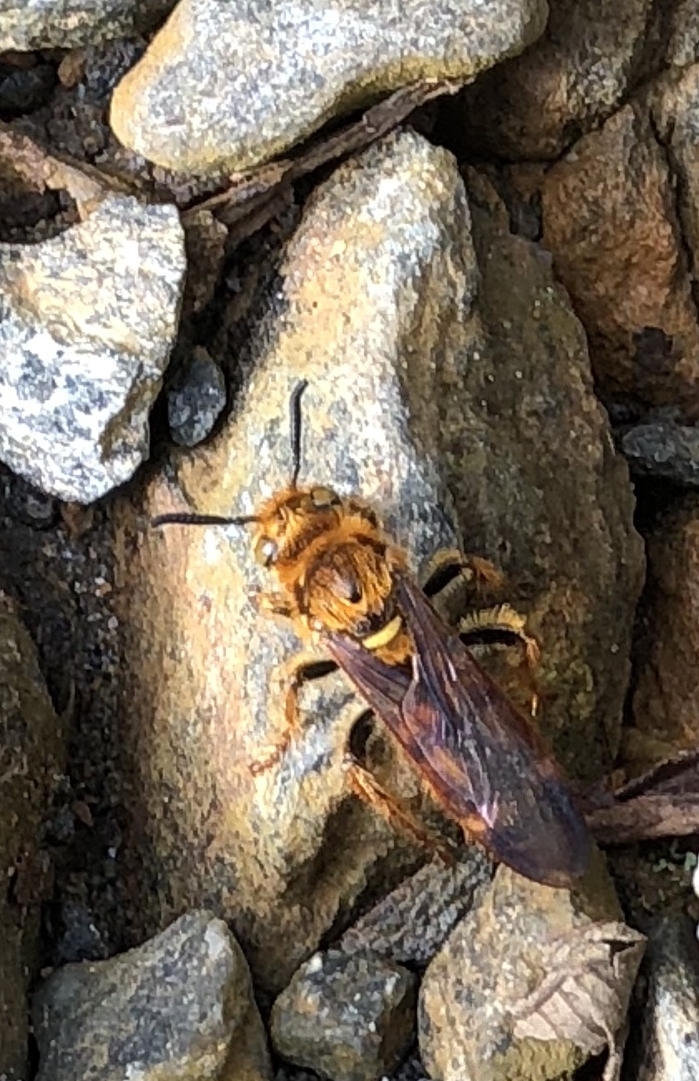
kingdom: Animalia
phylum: Arthropoda
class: Insecta
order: Hymenoptera
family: Scoliidae
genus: Xanthocampsomeris
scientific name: Xanthocampsomeris hesterae
